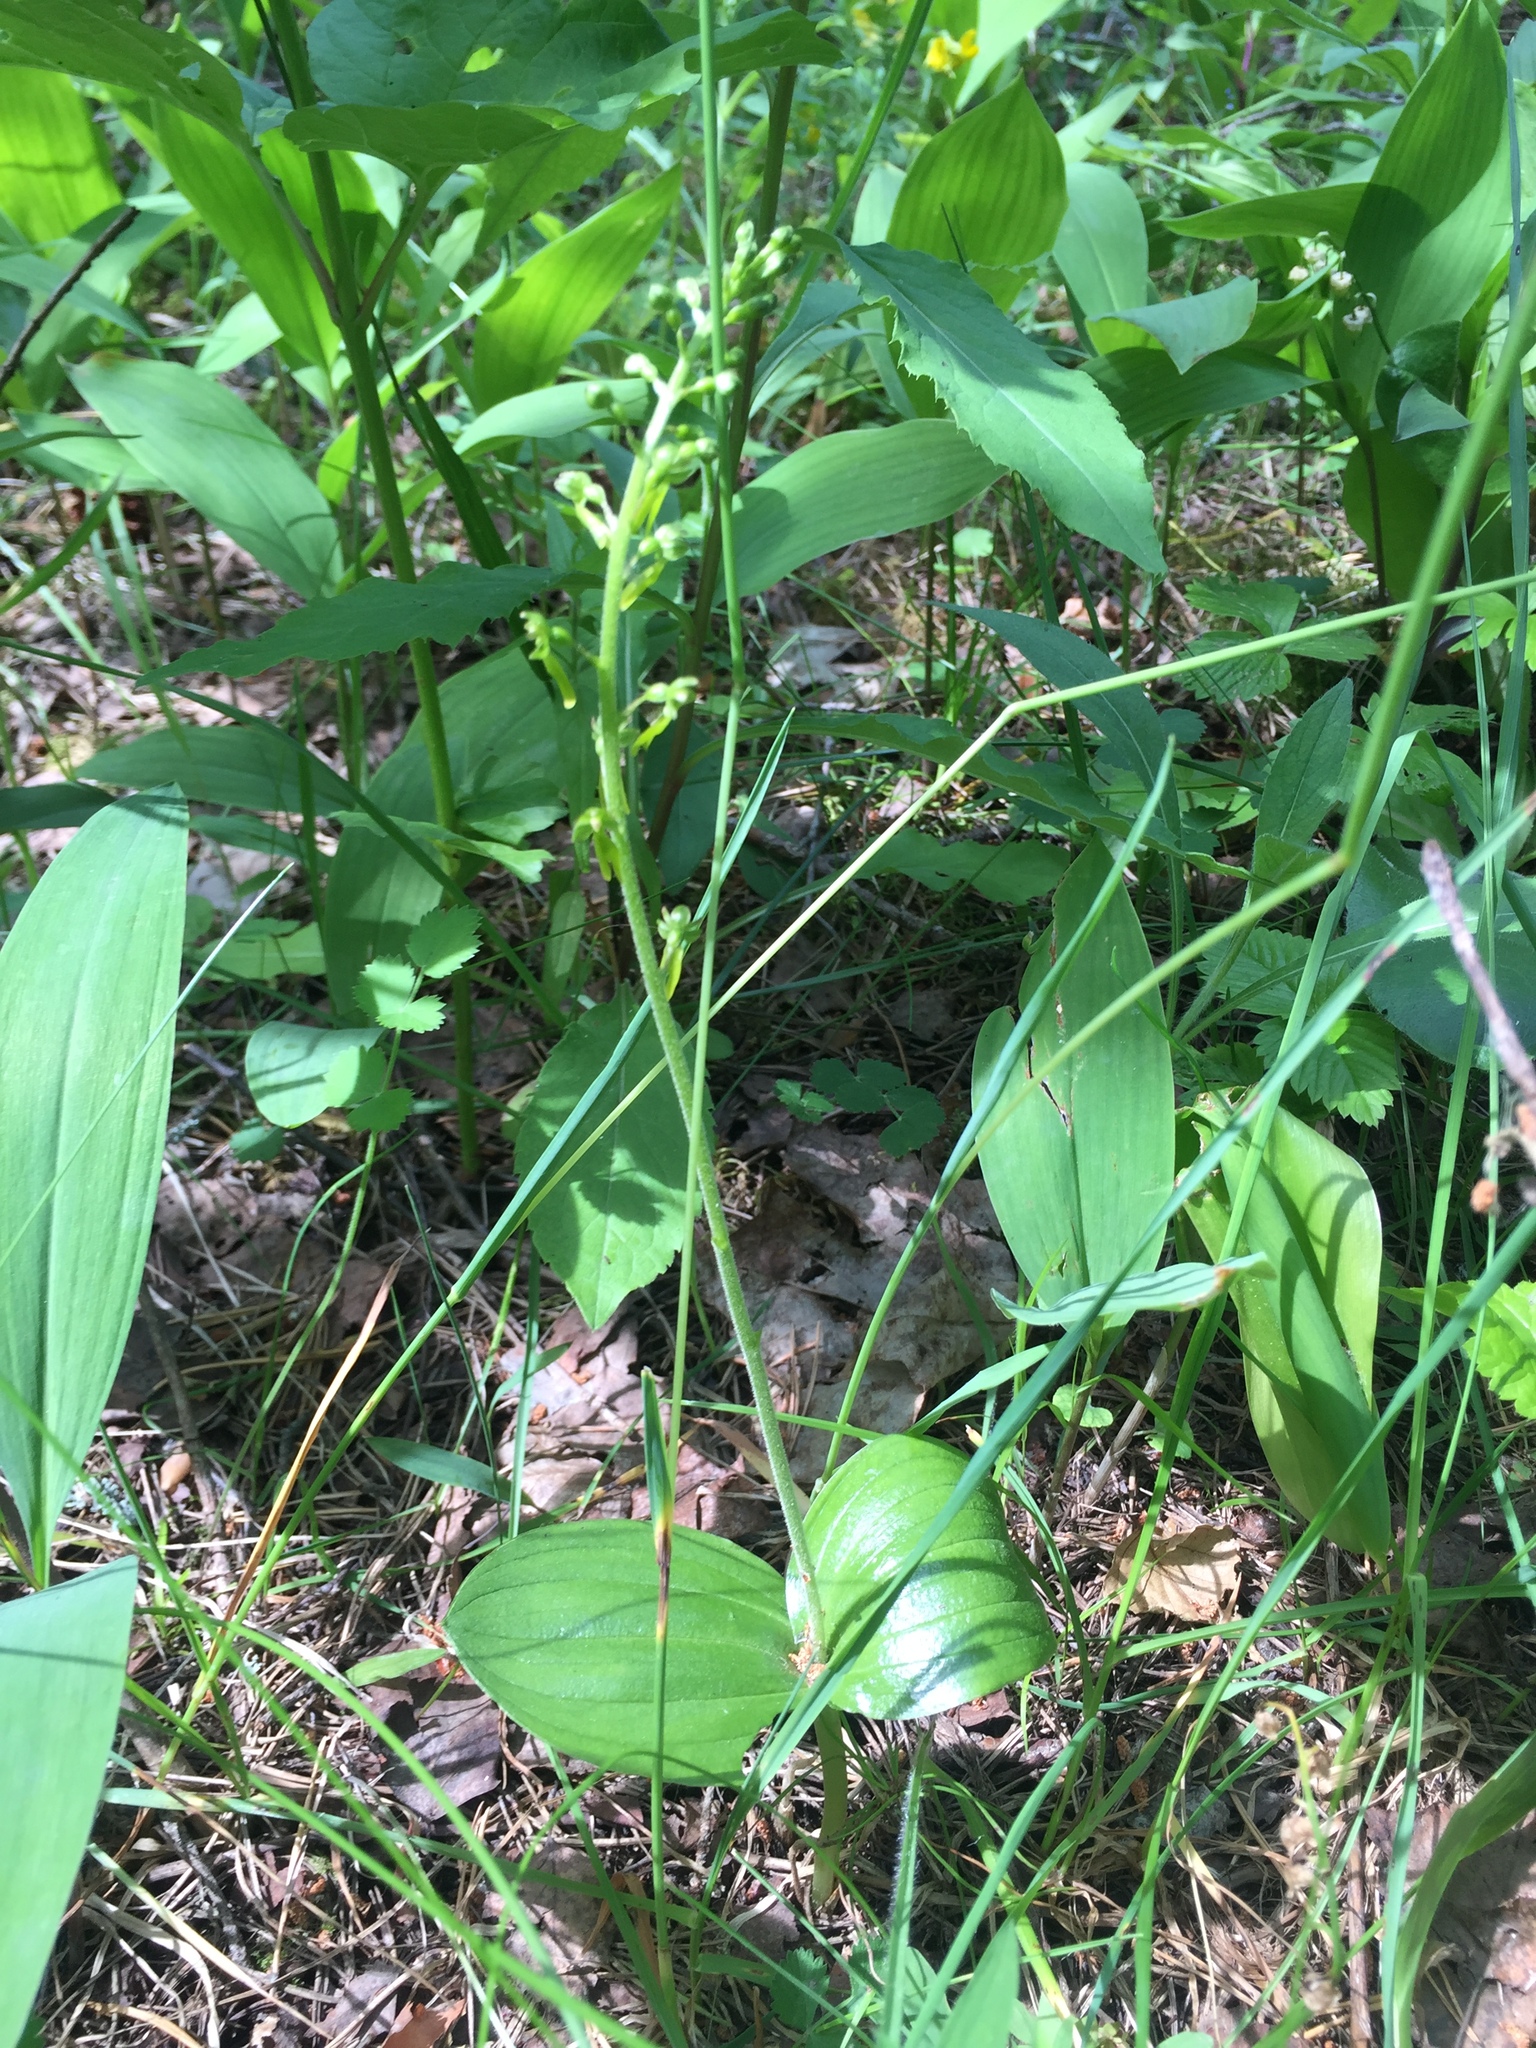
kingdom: Plantae
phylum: Tracheophyta
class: Liliopsida
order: Asparagales
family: Orchidaceae
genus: Neottia
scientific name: Neottia ovata
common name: Common twayblade
